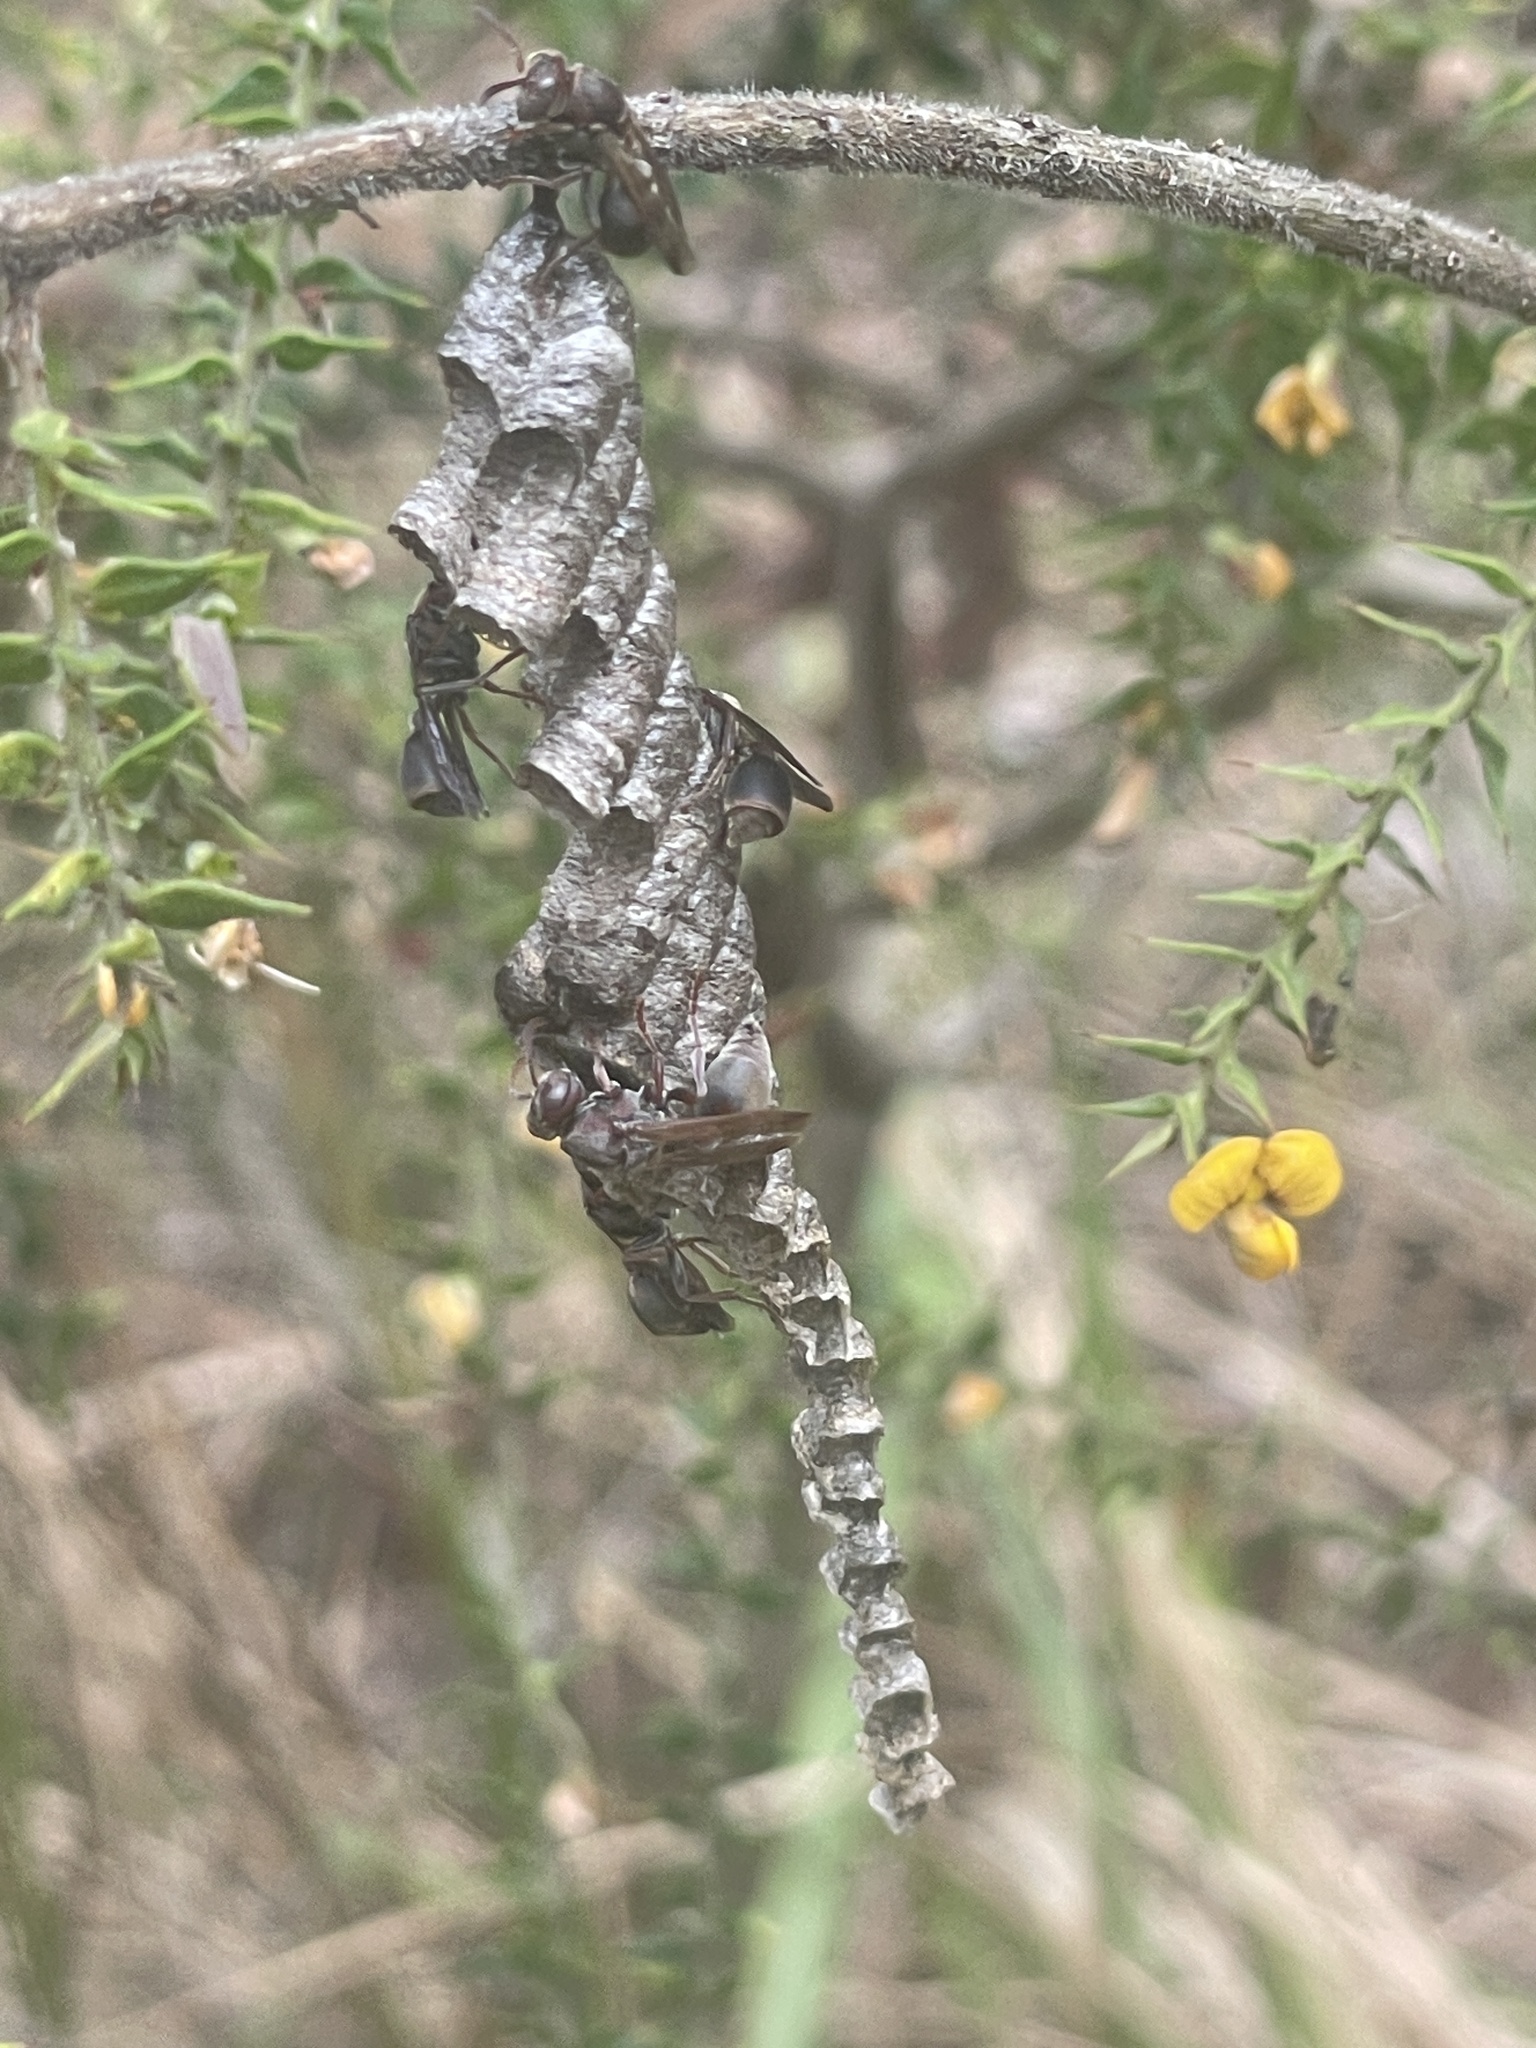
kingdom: Animalia
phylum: Arthropoda
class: Insecta
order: Hymenoptera
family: Vespidae
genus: Ropalidia
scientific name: Ropalidia revolutionalis
